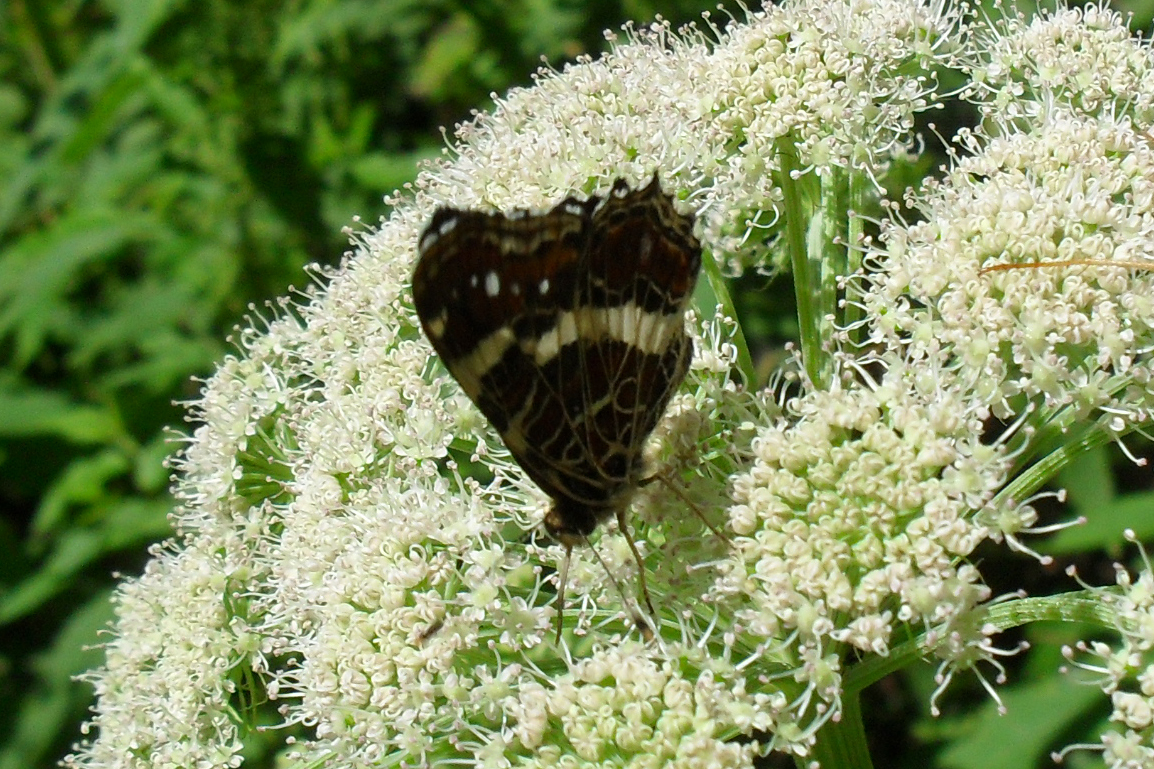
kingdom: Animalia
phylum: Arthropoda
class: Insecta
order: Lepidoptera
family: Nymphalidae
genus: Araschnia
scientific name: Araschnia levana
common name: Map butterfly
